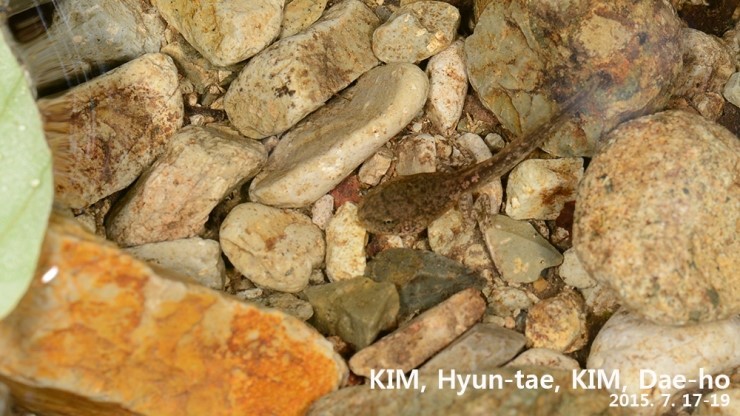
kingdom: Animalia
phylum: Chordata
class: Amphibia
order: Anura
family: Ranidae
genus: Rana
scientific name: Rana huanrenensis
